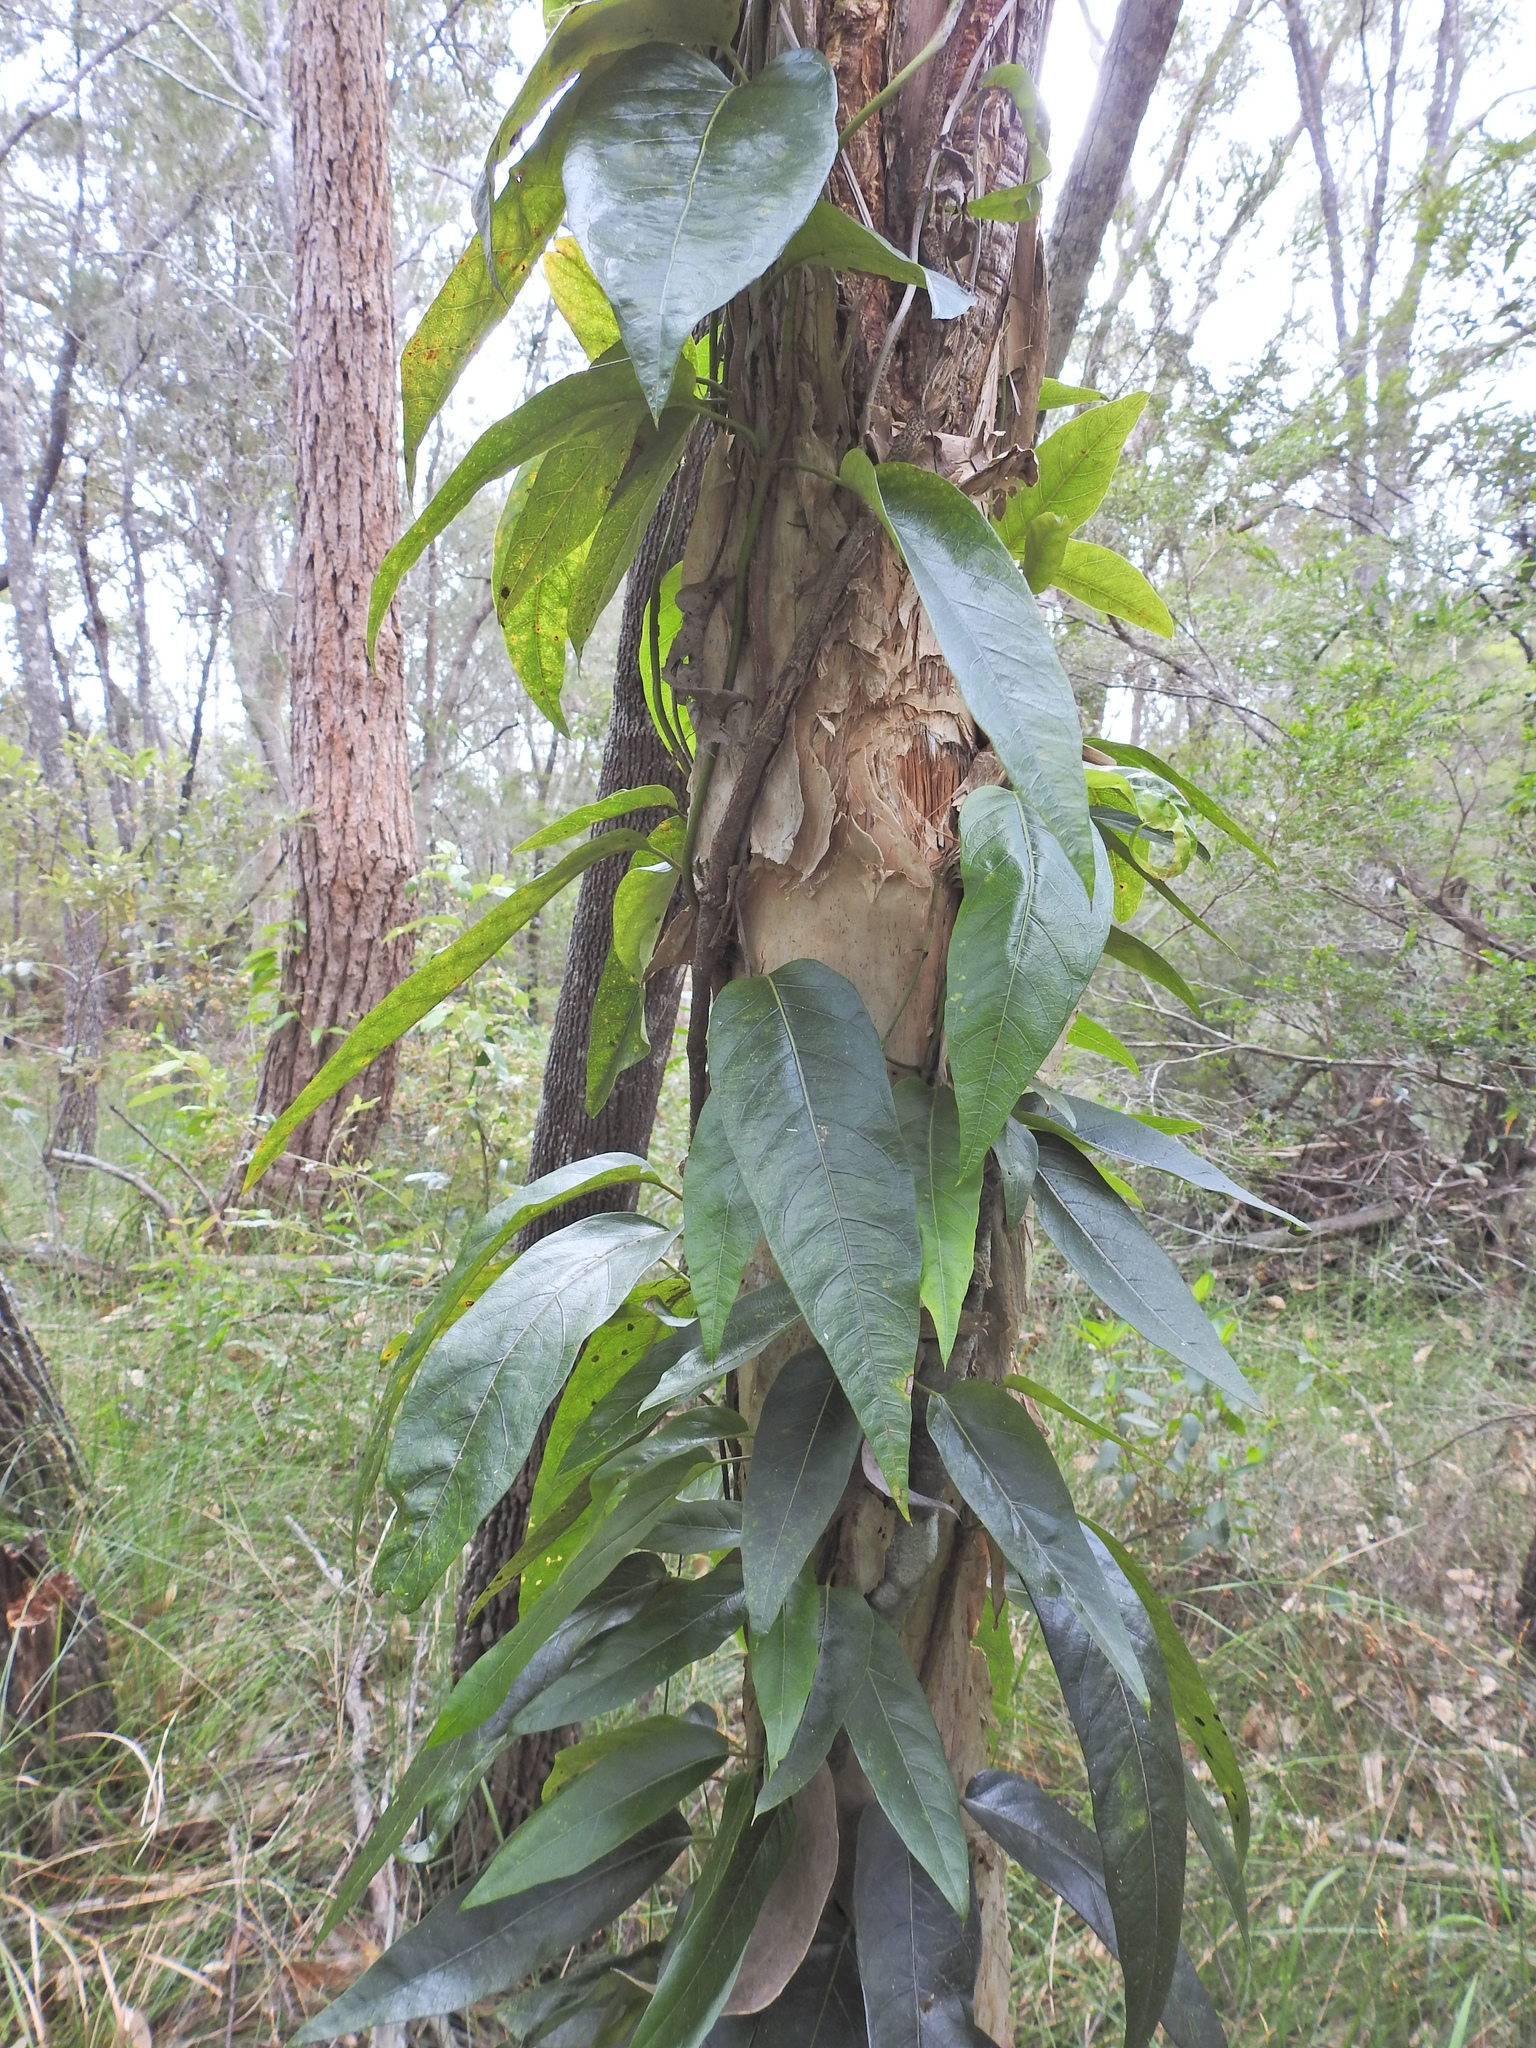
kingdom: Plantae
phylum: Tracheophyta
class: Magnoliopsida
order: Gentianales
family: Apocynaceae
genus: Parsonsia
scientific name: Parsonsia straminea
